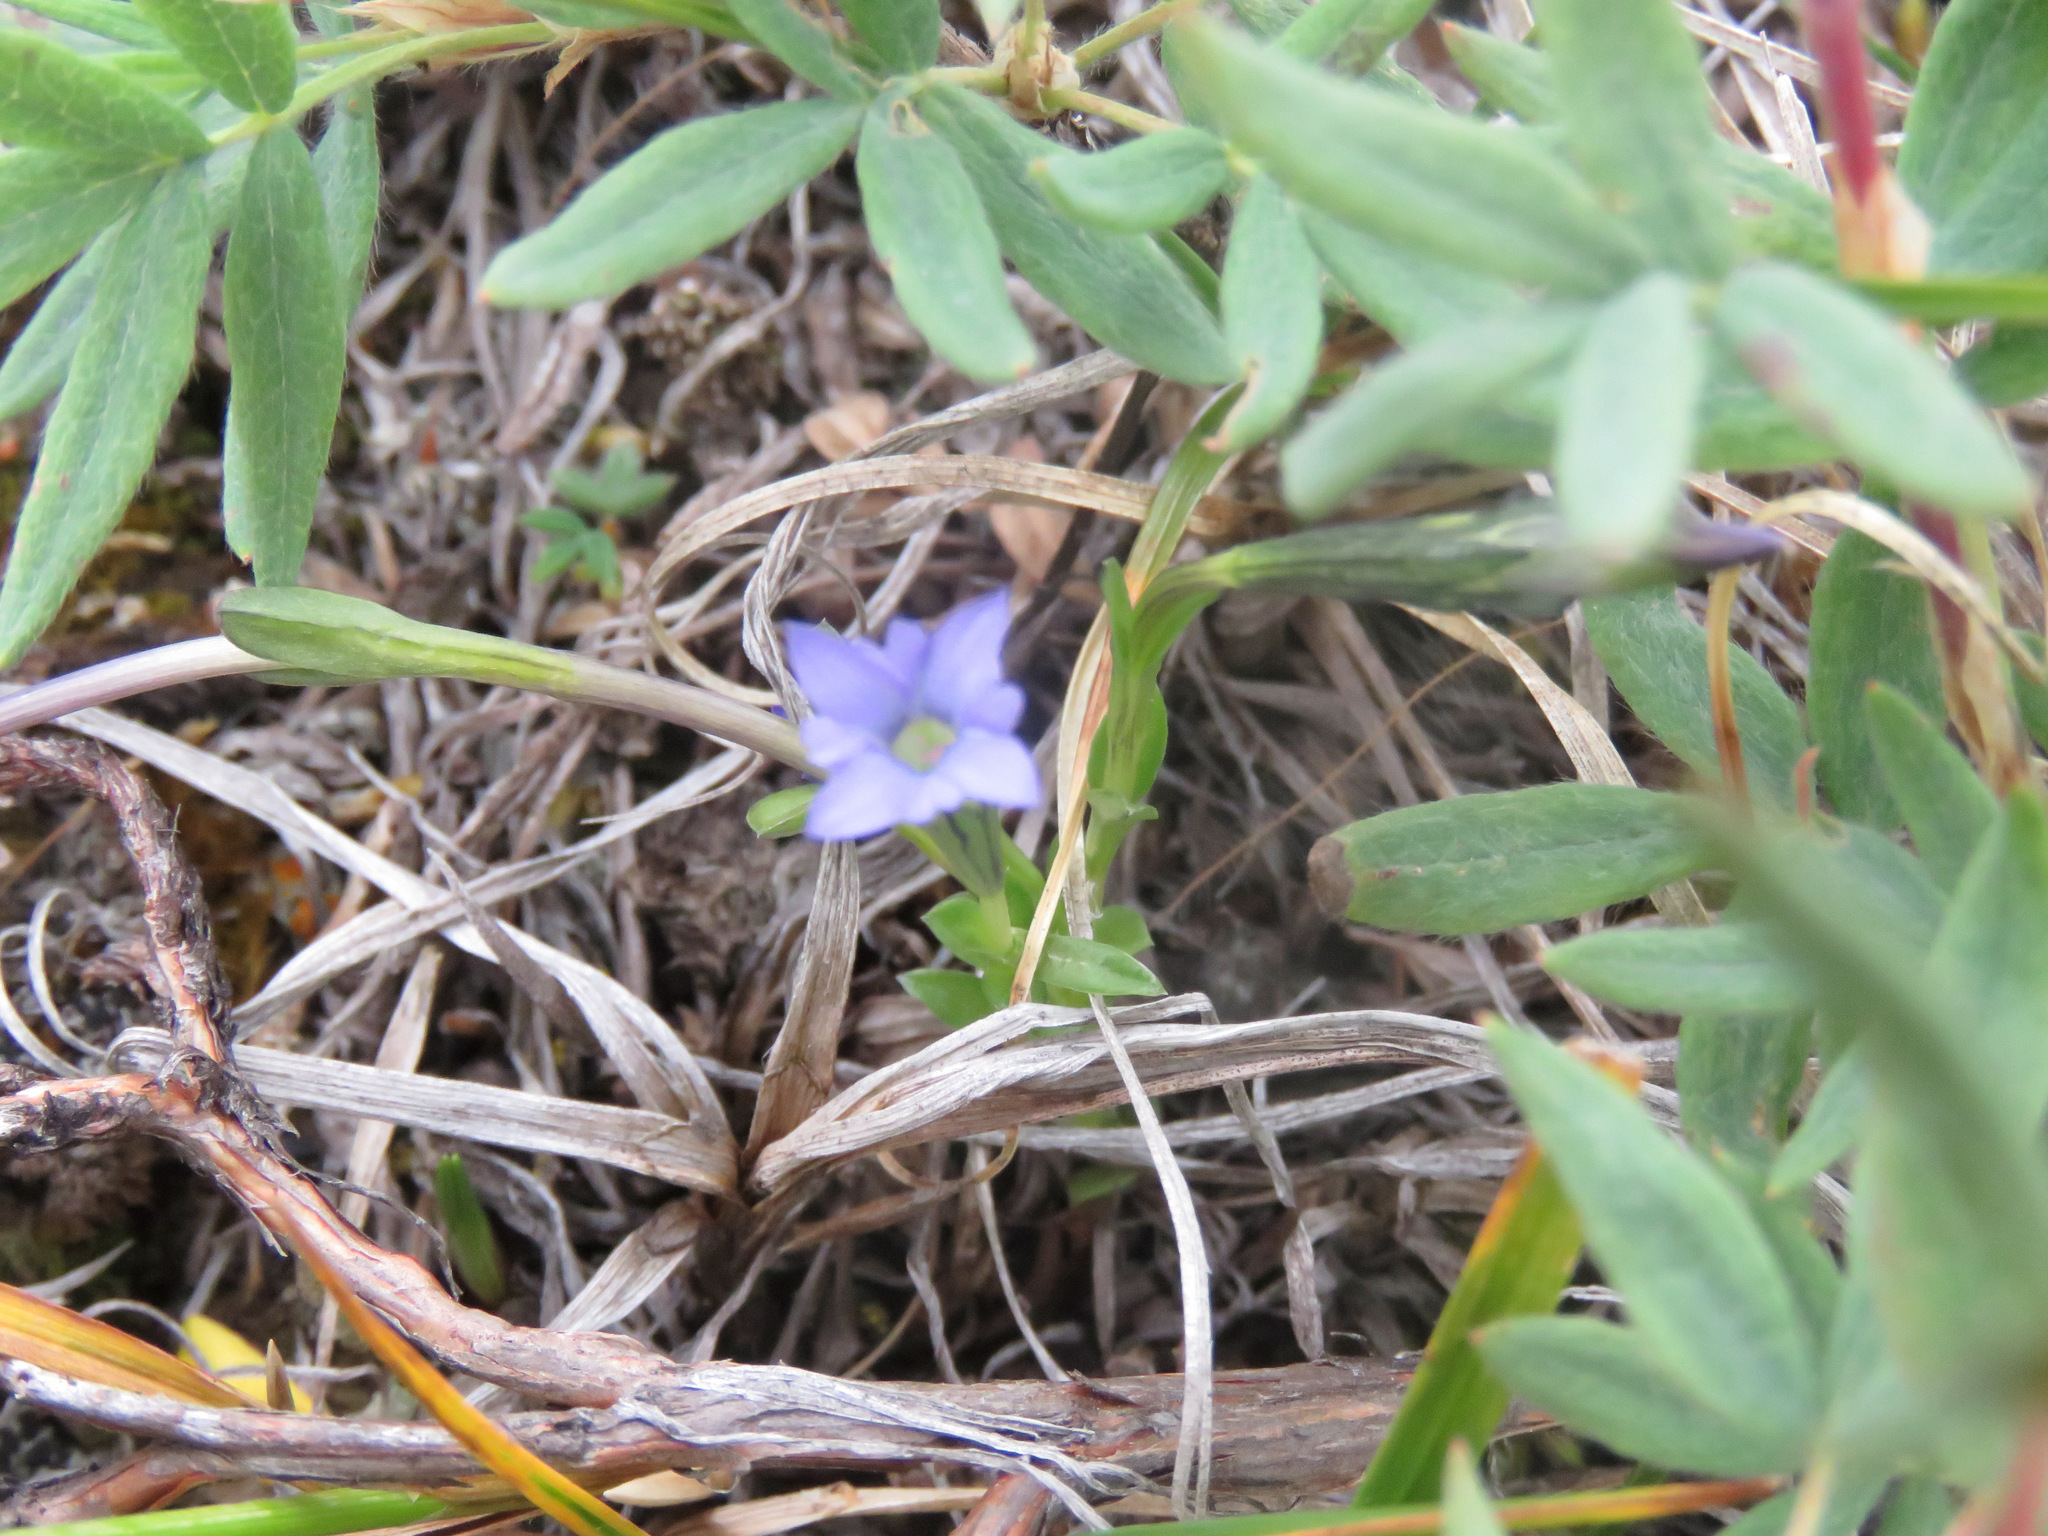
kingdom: Plantae
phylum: Tracheophyta
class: Magnoliopsida
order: Gentianales
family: Gentianaceae
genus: Gentiana
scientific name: Gentiana prostrata
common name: Moss gentian
